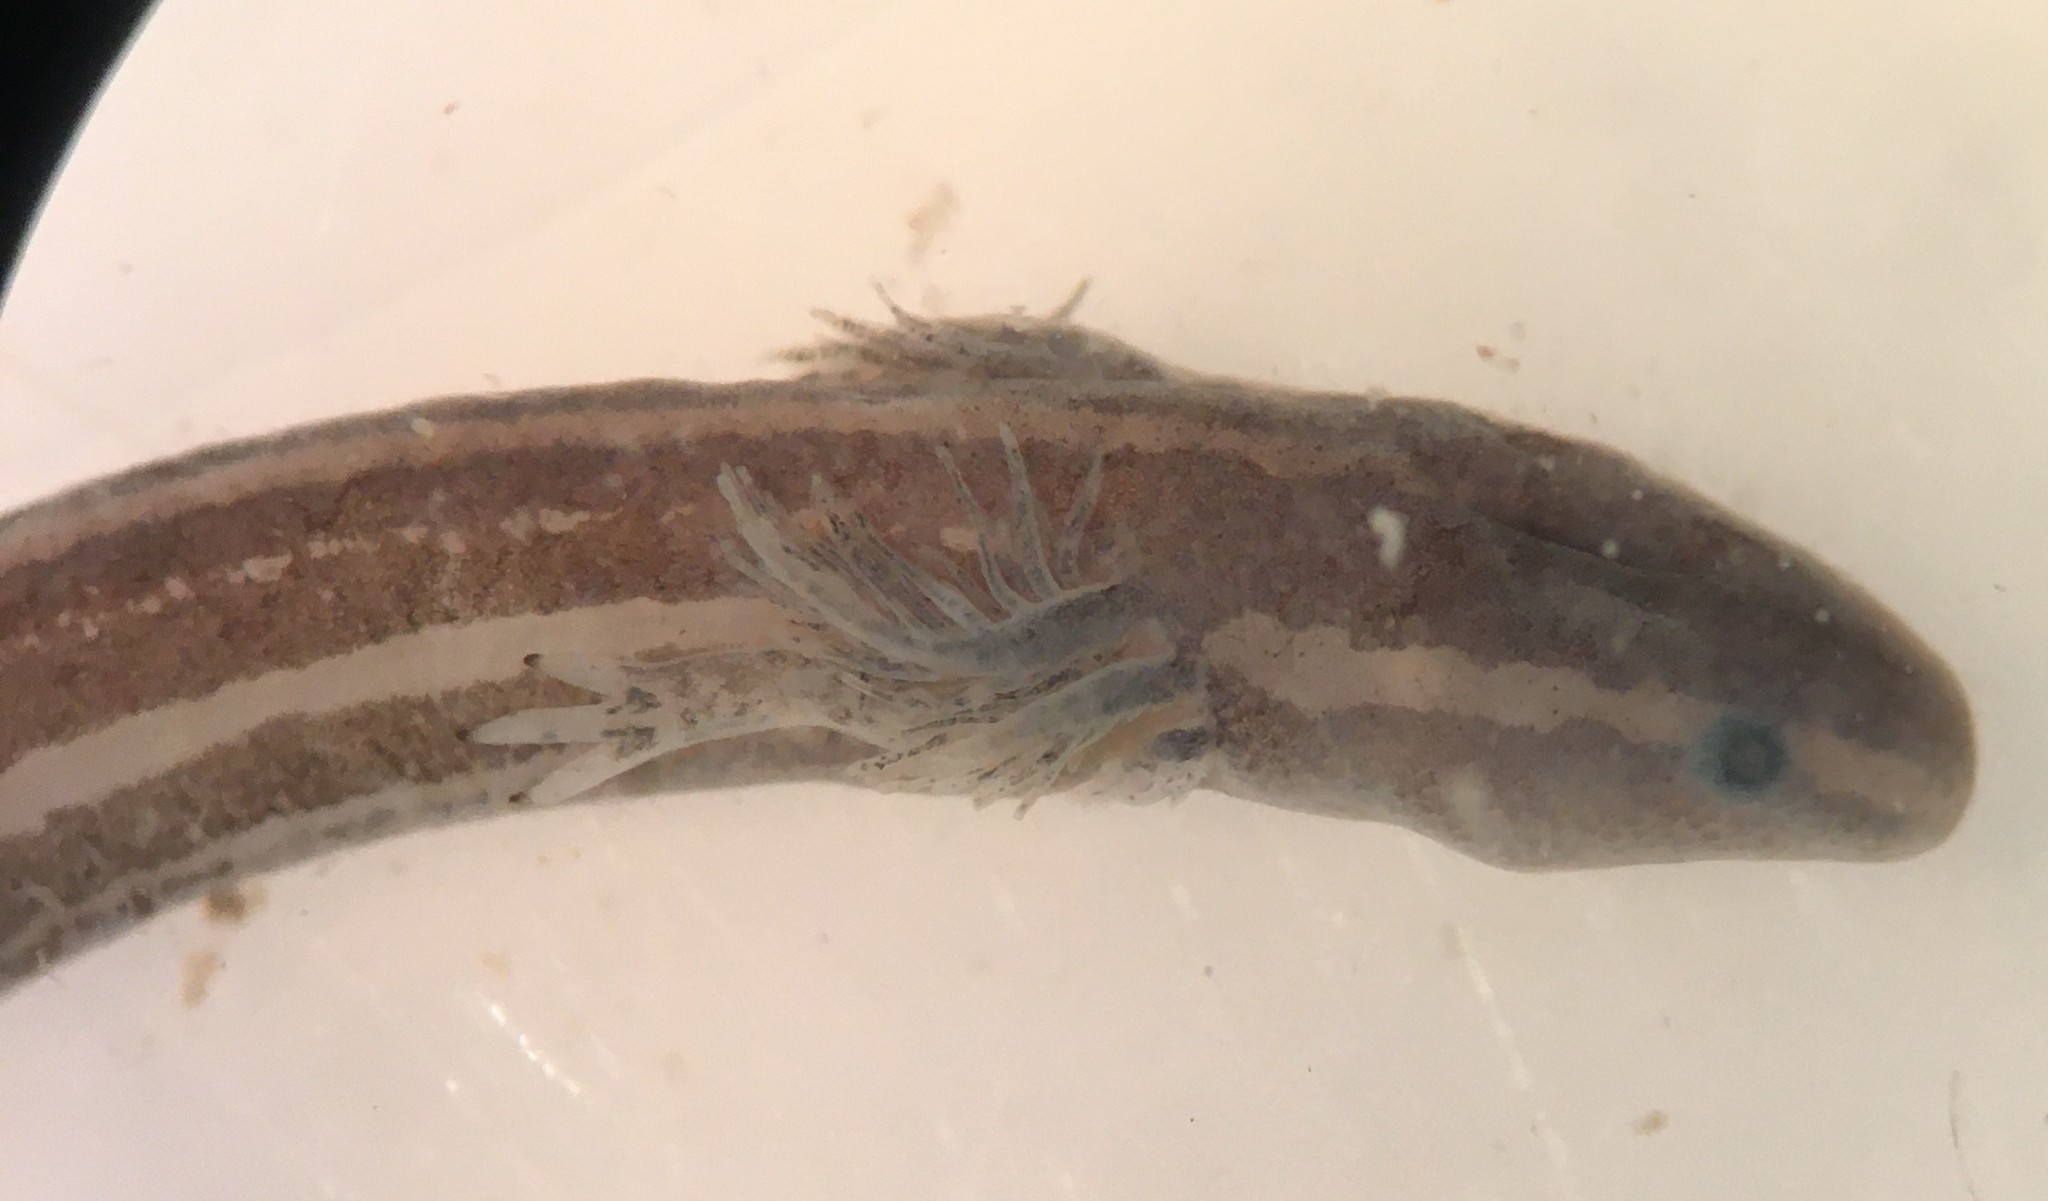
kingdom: Animalia
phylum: Chordata
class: Amphibia
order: Caudata
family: Sirenidae
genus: Pseudobranchus
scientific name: Pseudobranchus axanthus
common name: Narrow-striped mud siren
